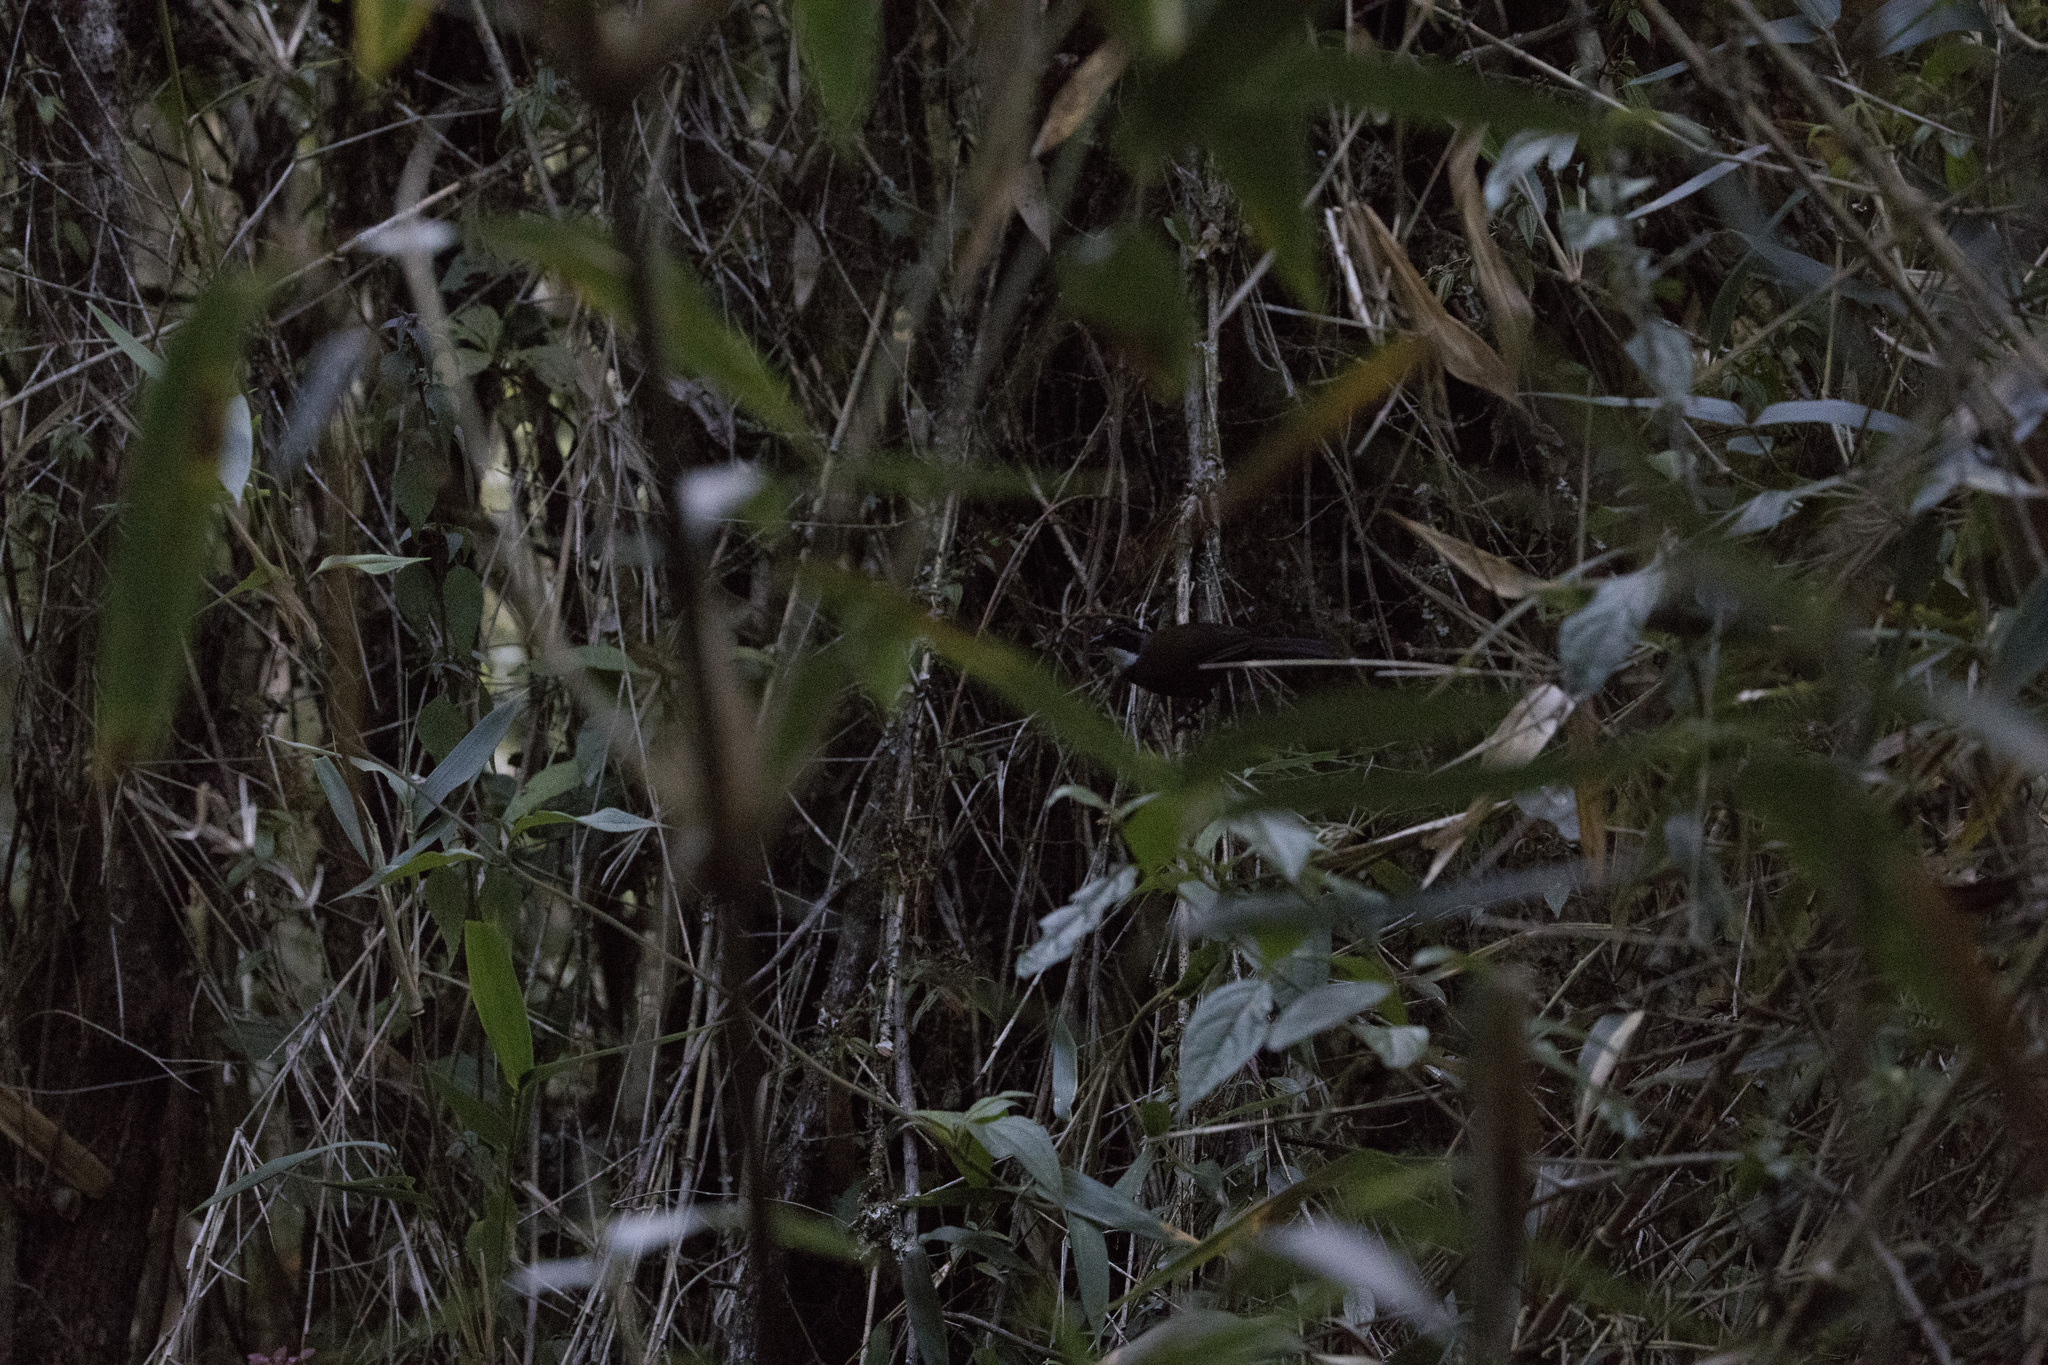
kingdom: Animalia
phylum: Chordata
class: Aves
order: Passeriformes
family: Passerellidae
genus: Arremon
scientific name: Arremon assimilis
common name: Grey-browed brushfinch
